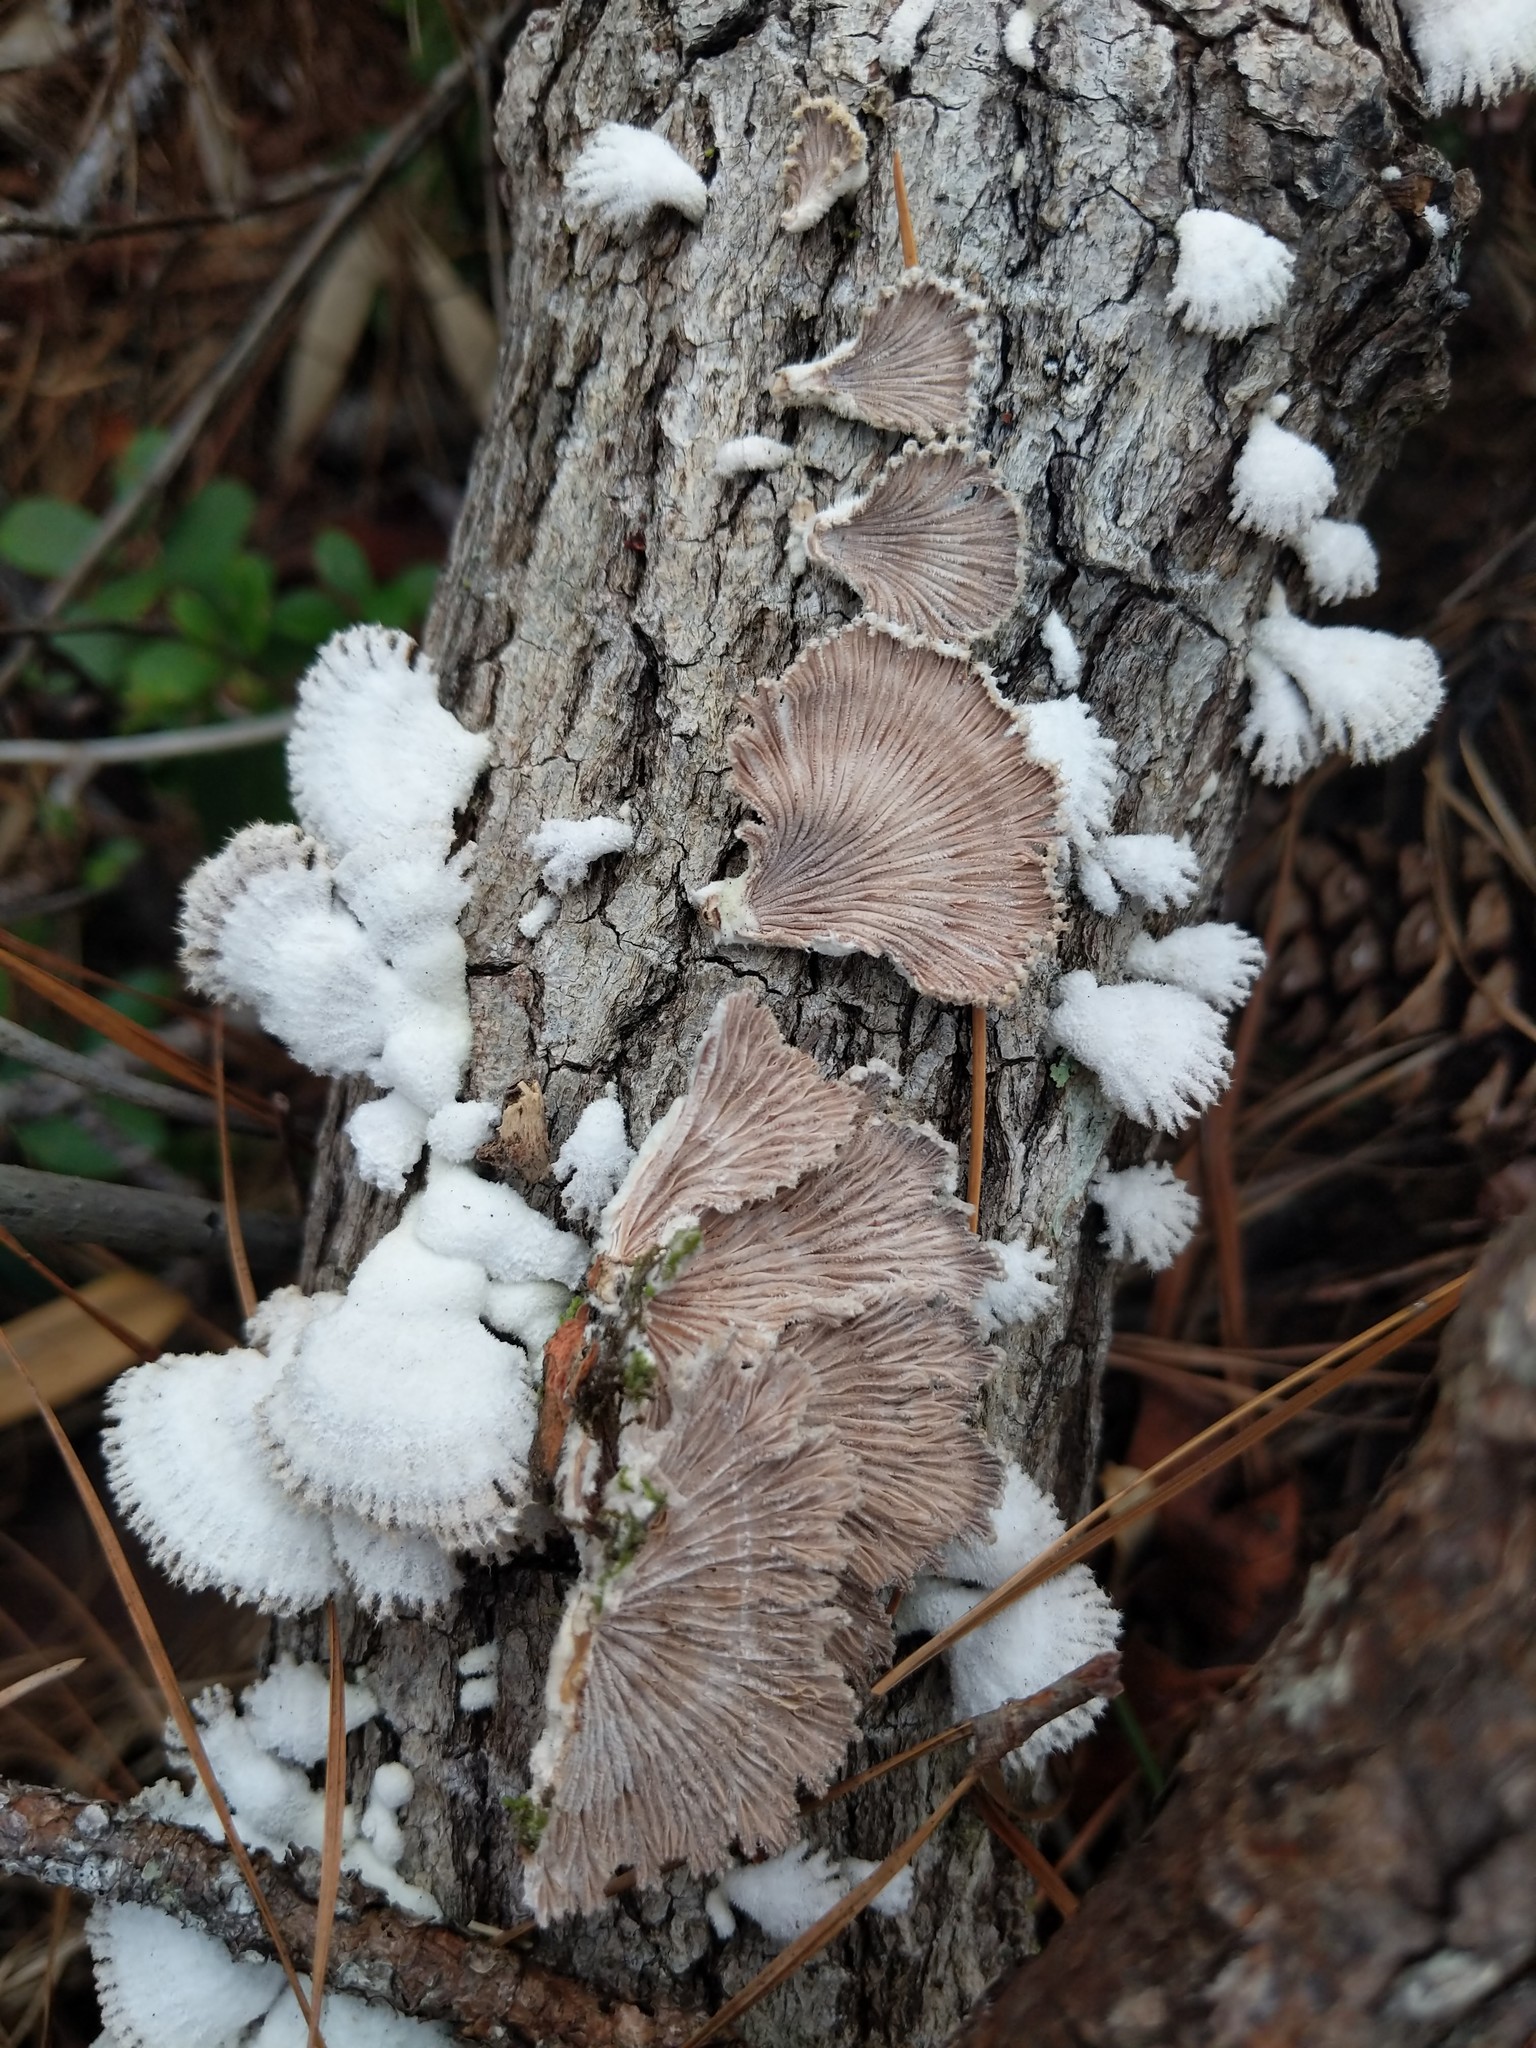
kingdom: Fungi
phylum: Basidiomycota
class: Agaricomycetes
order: Agaricales
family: Schizophyllaceae
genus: Schizophyllum
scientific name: Schizophyllum commune
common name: Common porecrust
